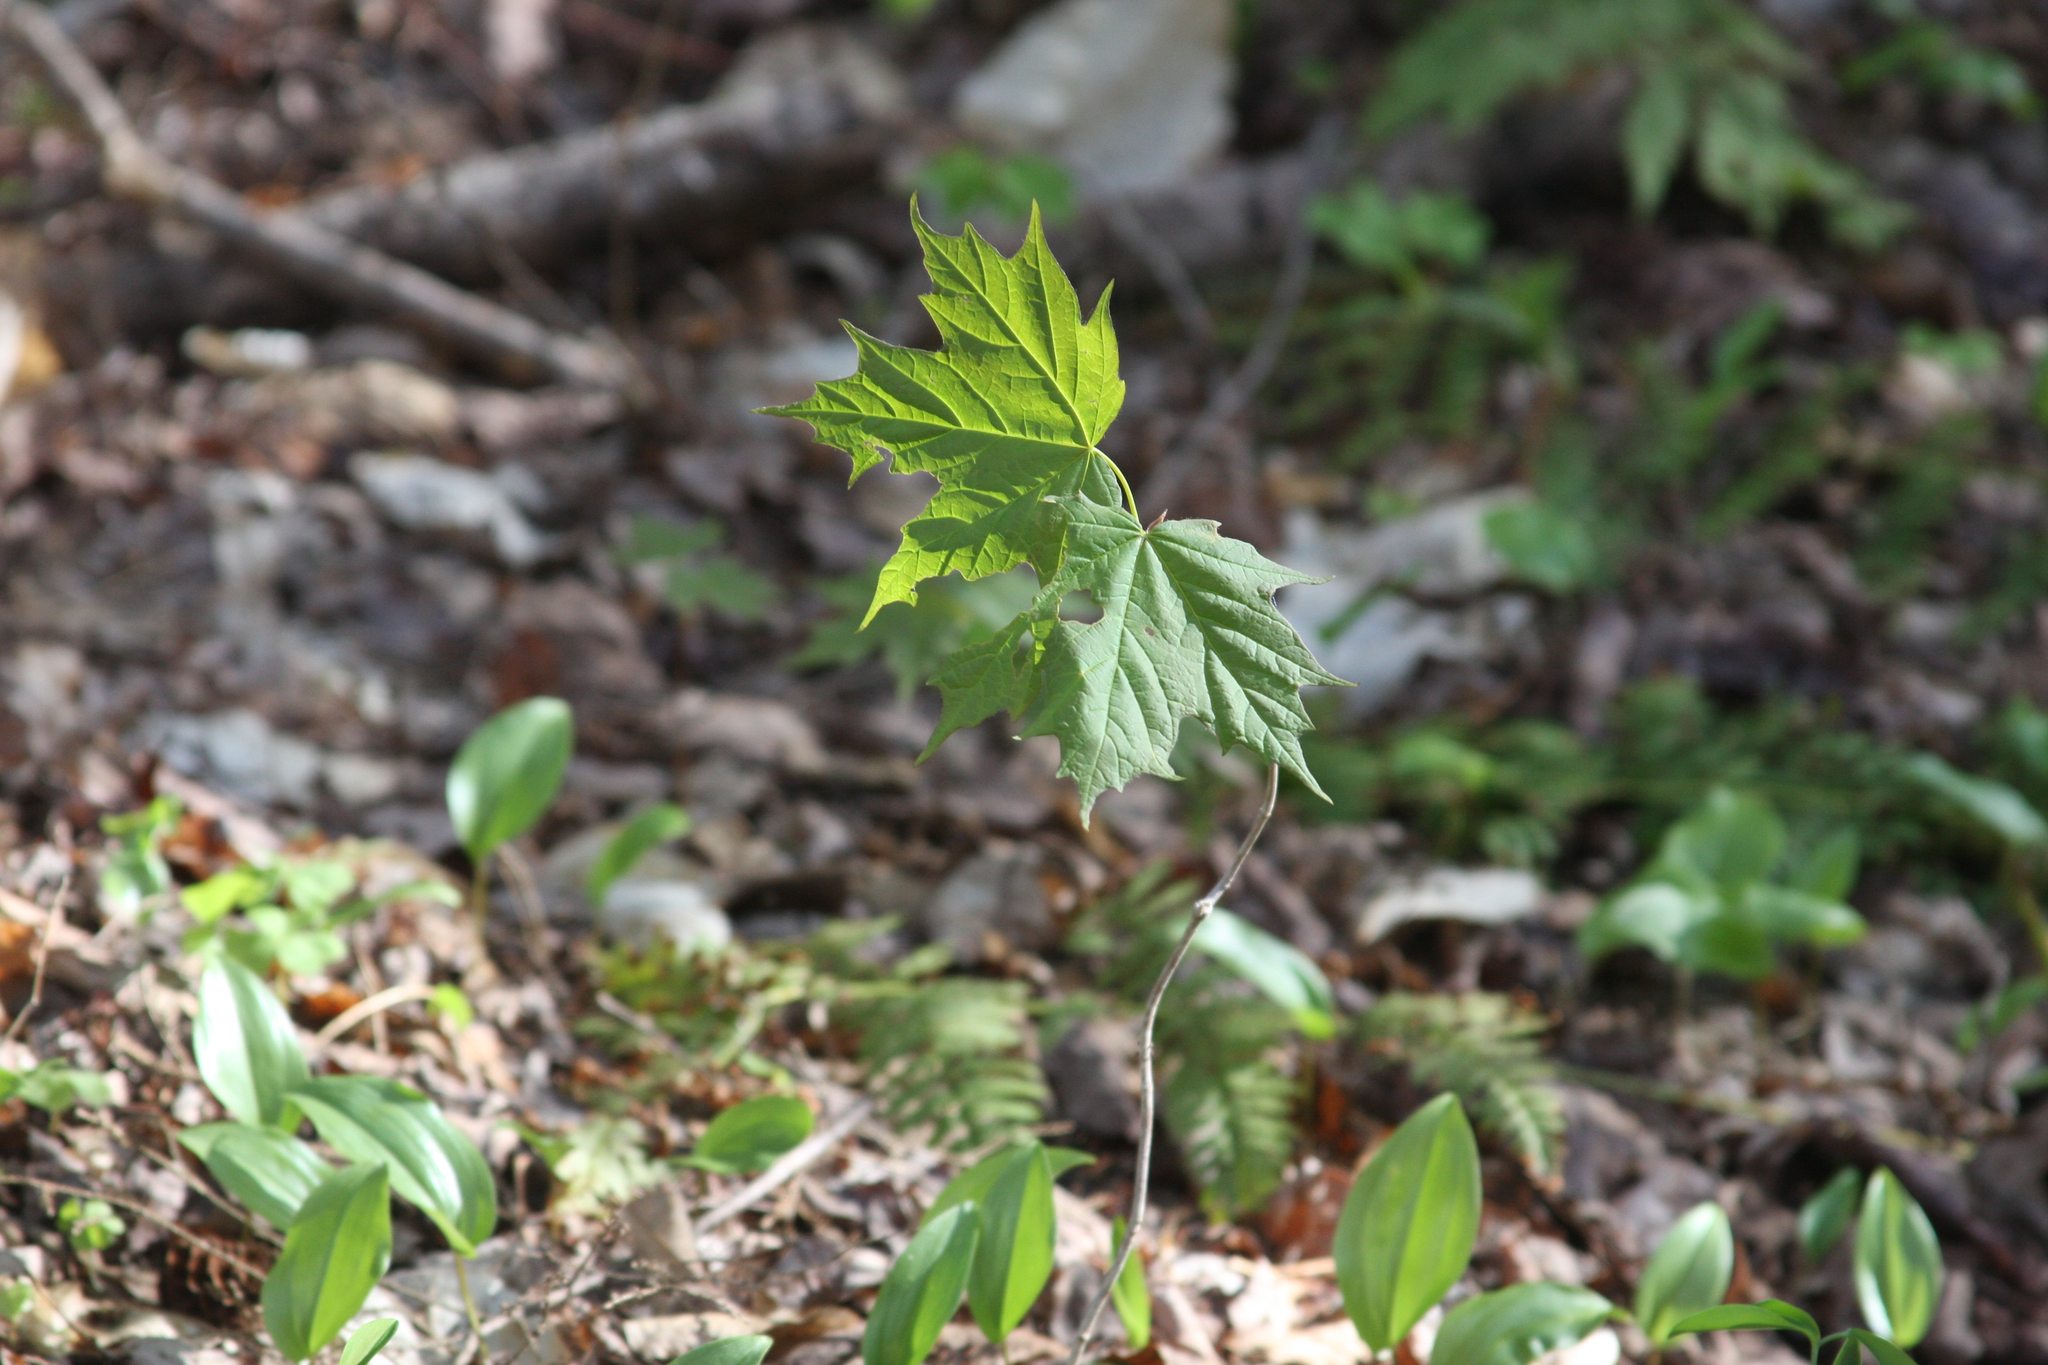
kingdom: Plantae
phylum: Tracheophyta
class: Magnoliopsida
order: Sapindales
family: Sapindaceae
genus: Acer
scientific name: Acer saccharum
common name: Sugar maple
